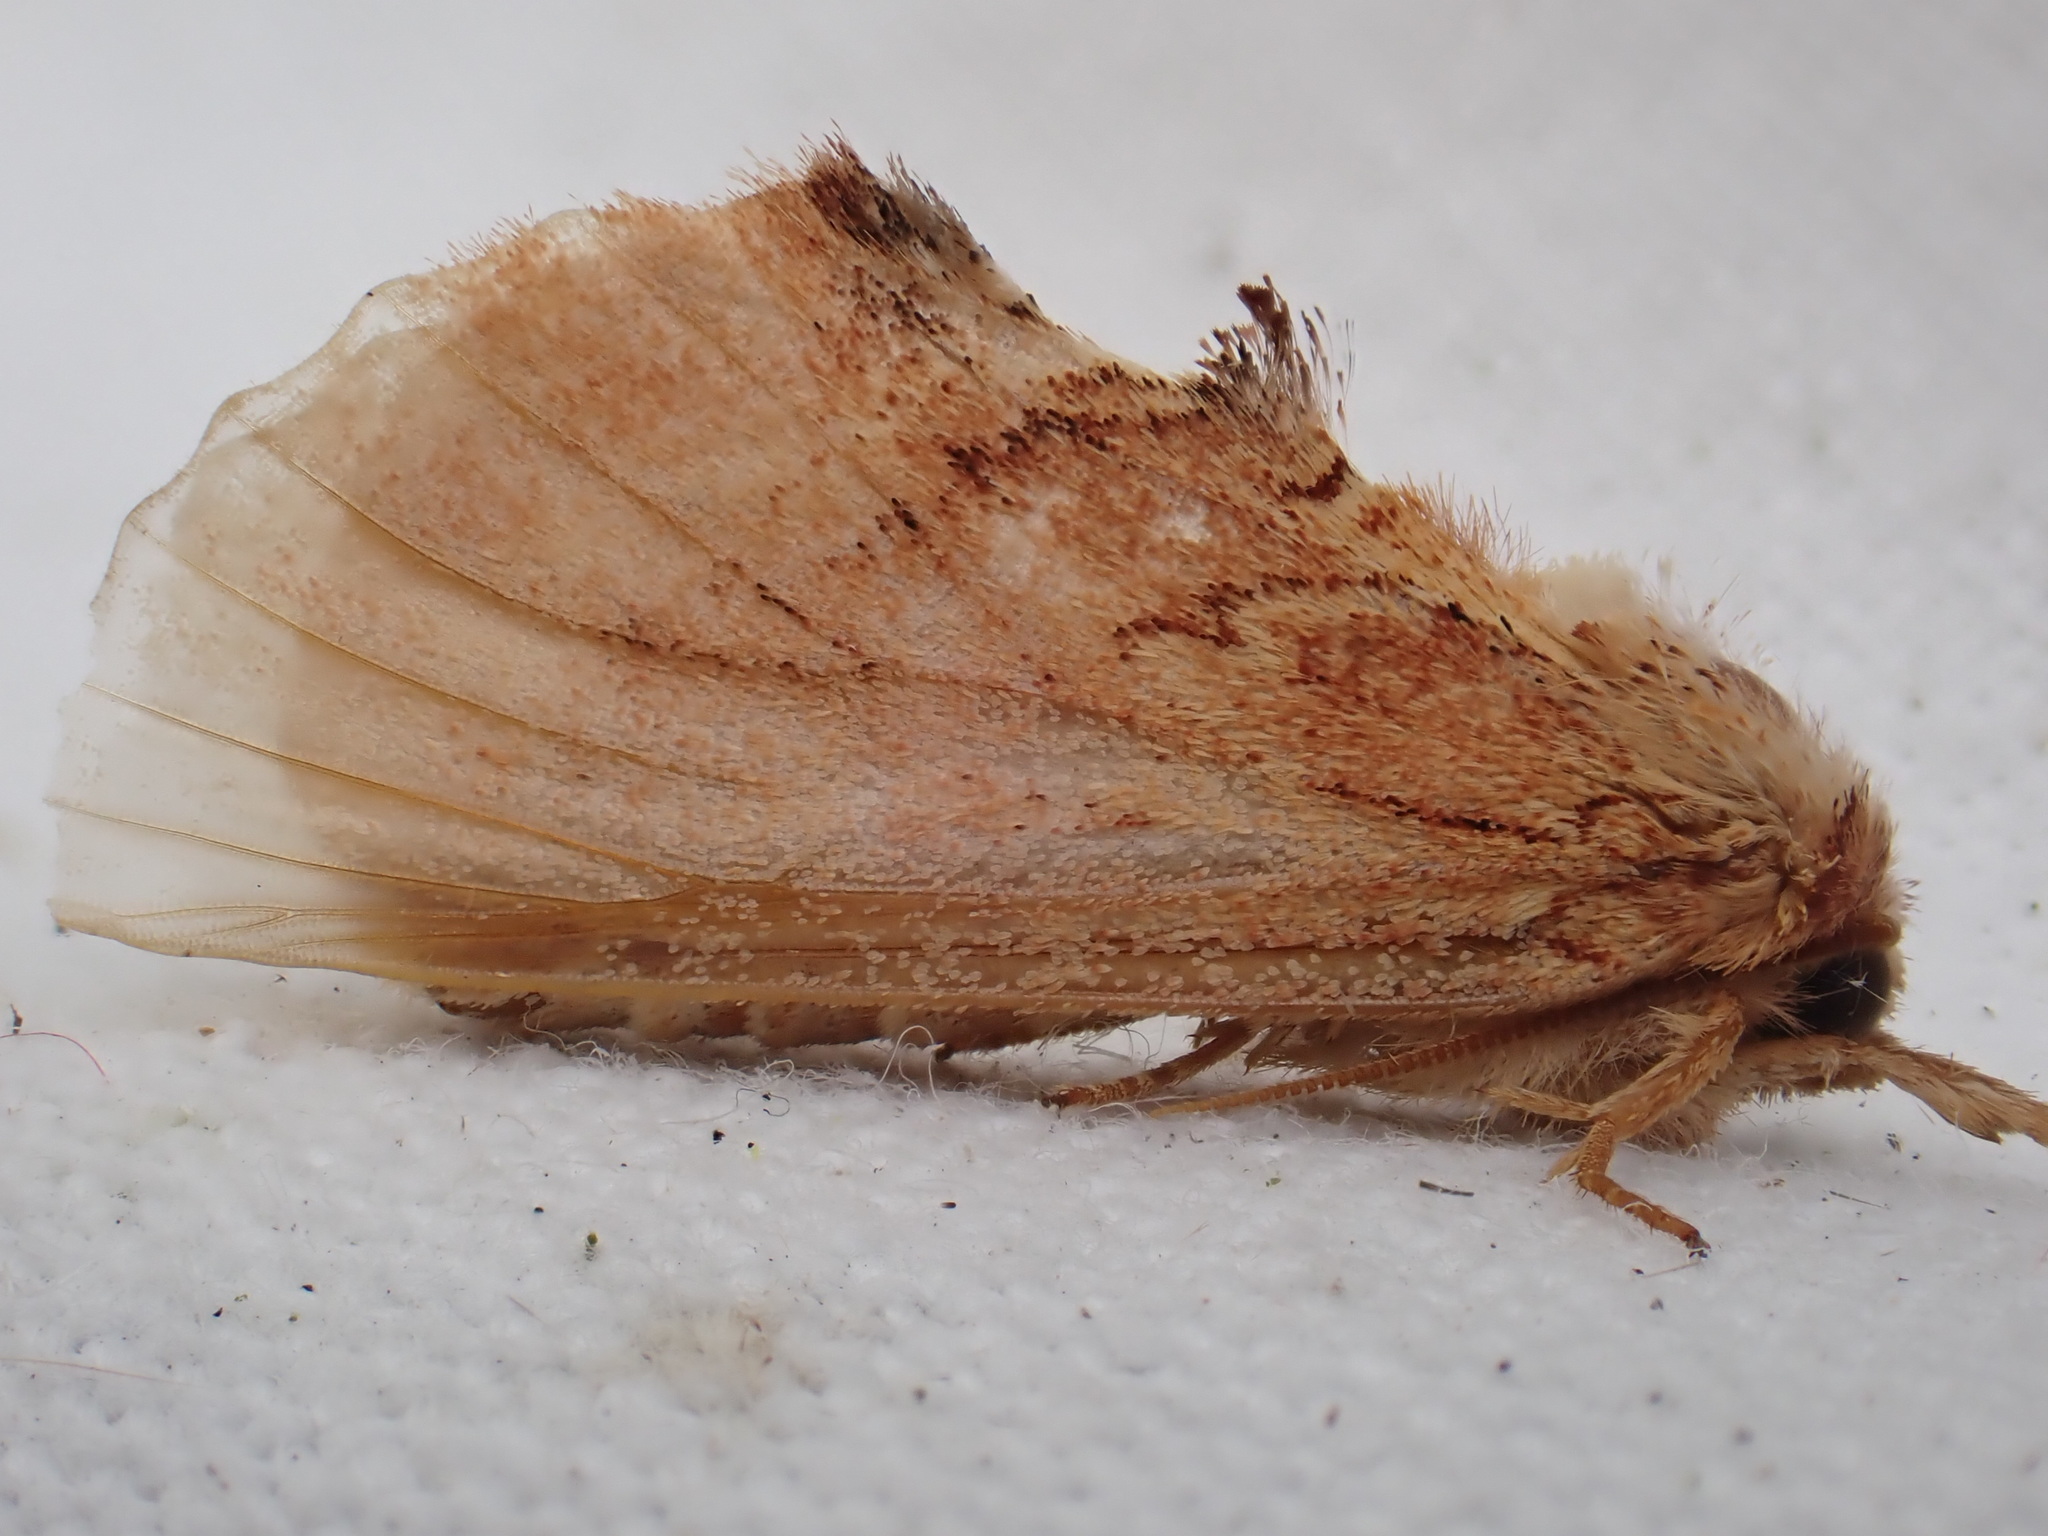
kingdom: Animalia
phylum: Arthropoda
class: Insecta
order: Lepidoptera
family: Notodontidae
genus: Ptilodon
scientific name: Ptilodon capucina
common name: Coxcomb prominent
